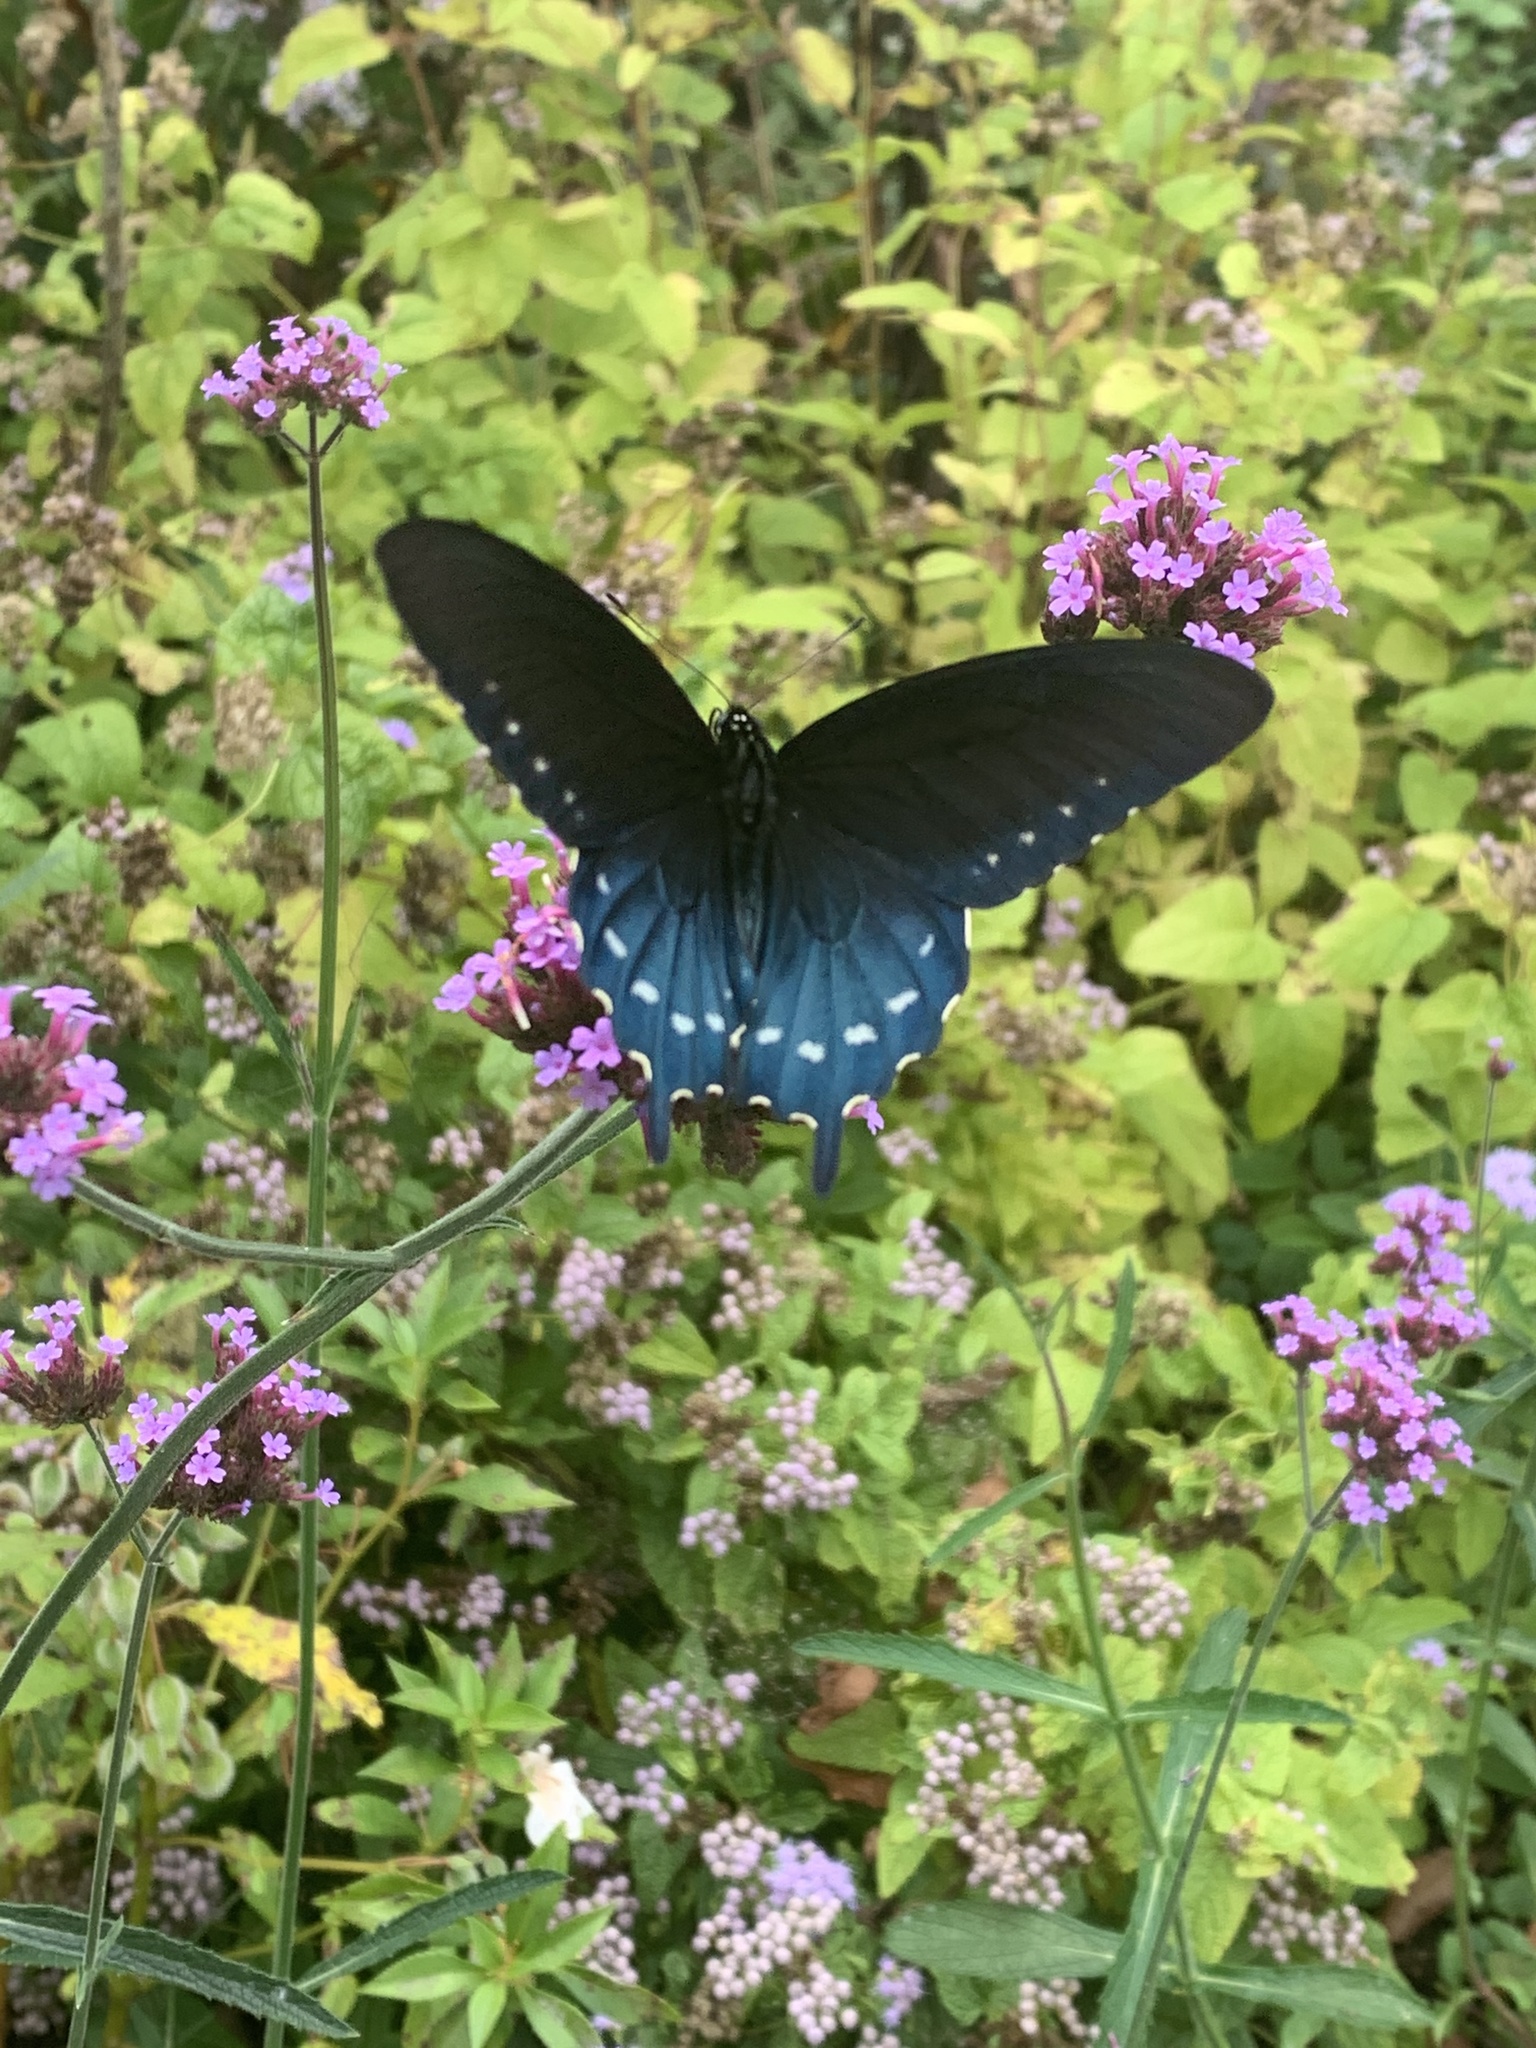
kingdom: Animalia
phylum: Arthropoda
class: Insecta
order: Lepidoptera
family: Papilionidae
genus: Battus
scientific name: Battus philenor
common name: Pipevine swallowtail
